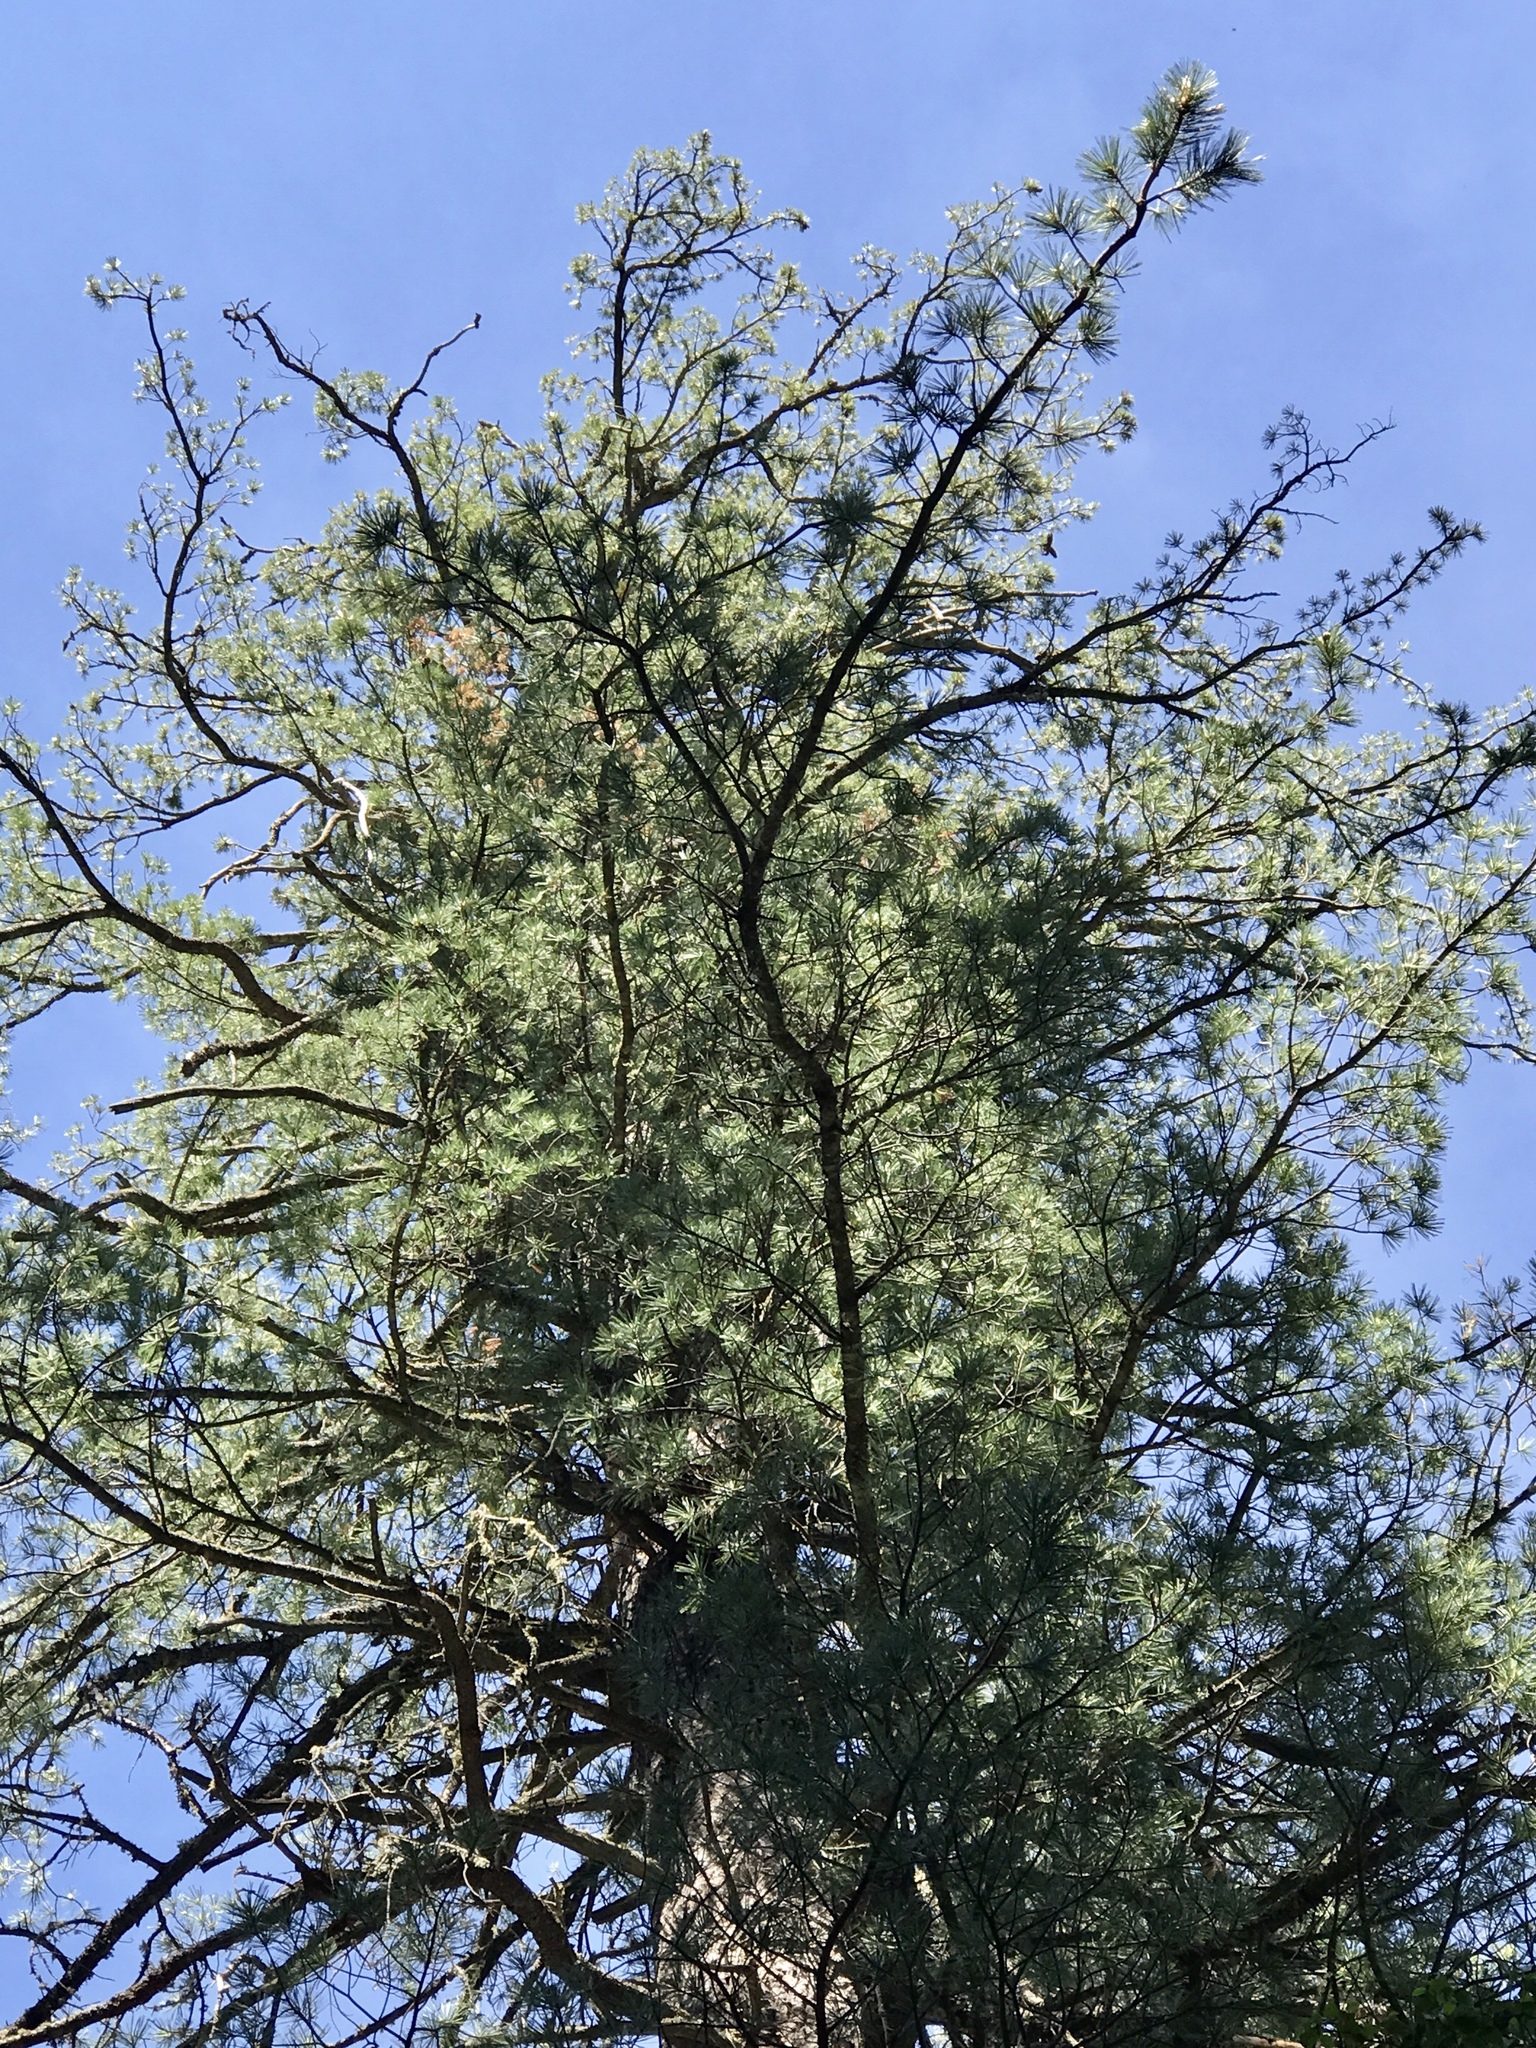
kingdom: Plantae
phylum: Tracheophyta
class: Pinopsida
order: Pinales
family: Pinaceae
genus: Pinus
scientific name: Pinus strobiformis
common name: Southwestern white pine
